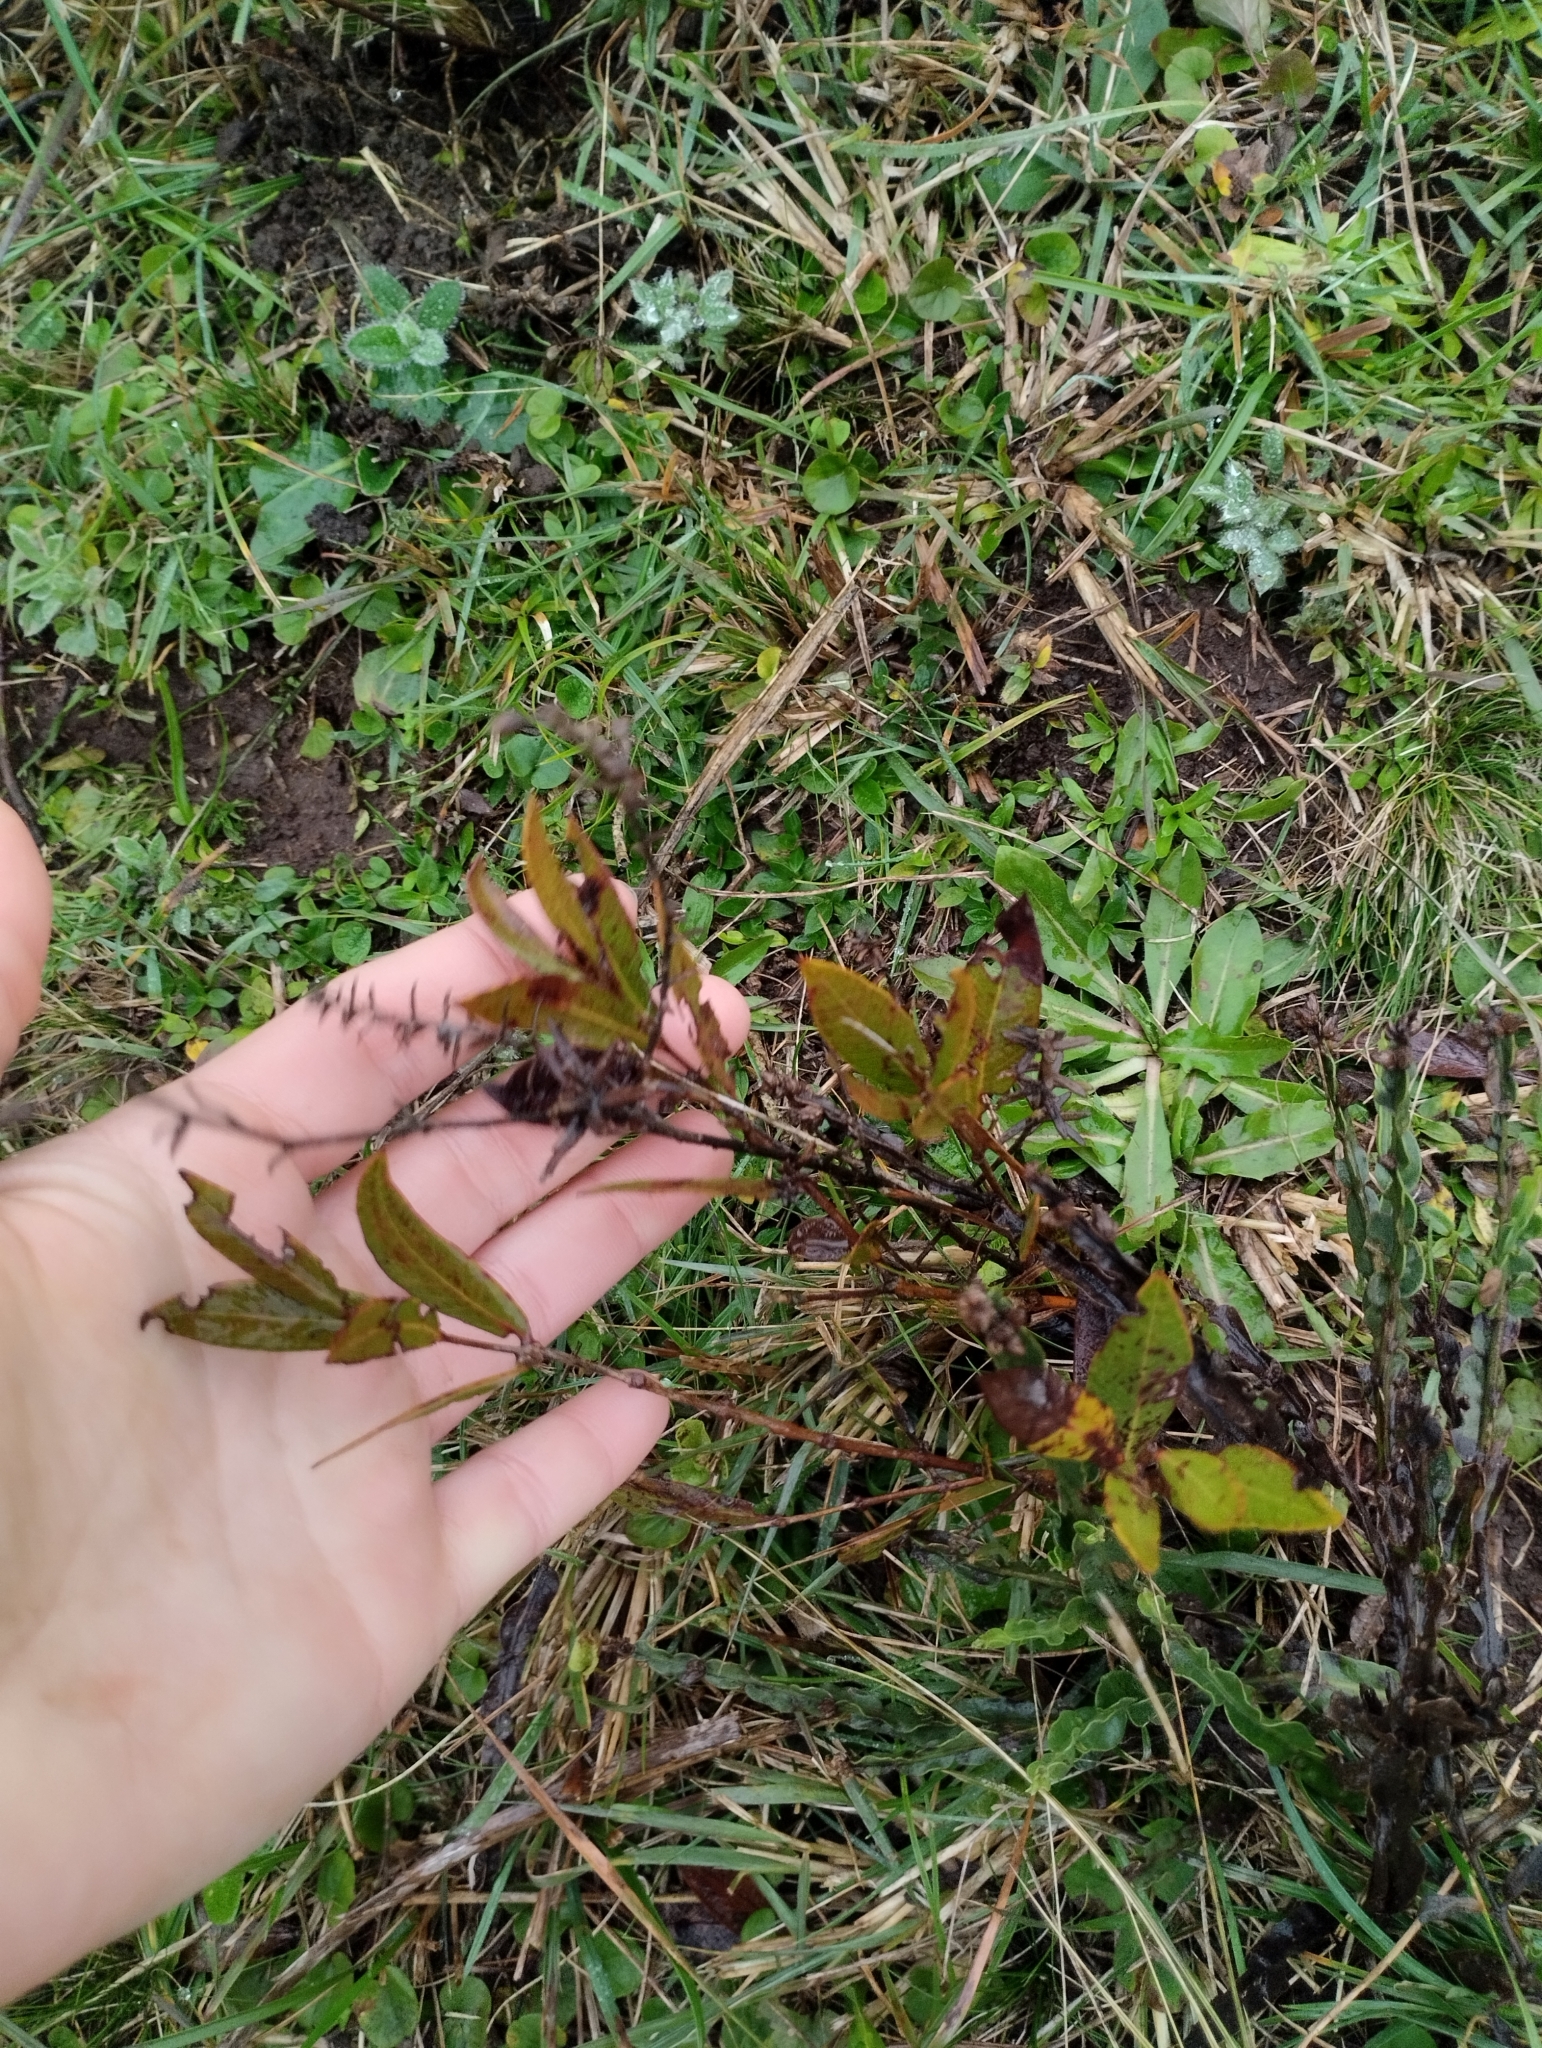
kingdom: Plantae
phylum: Tracheophyta
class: Magnoliopsida
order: Myrtales
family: Myrtaceae
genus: Psidium
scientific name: Psidium salutare
